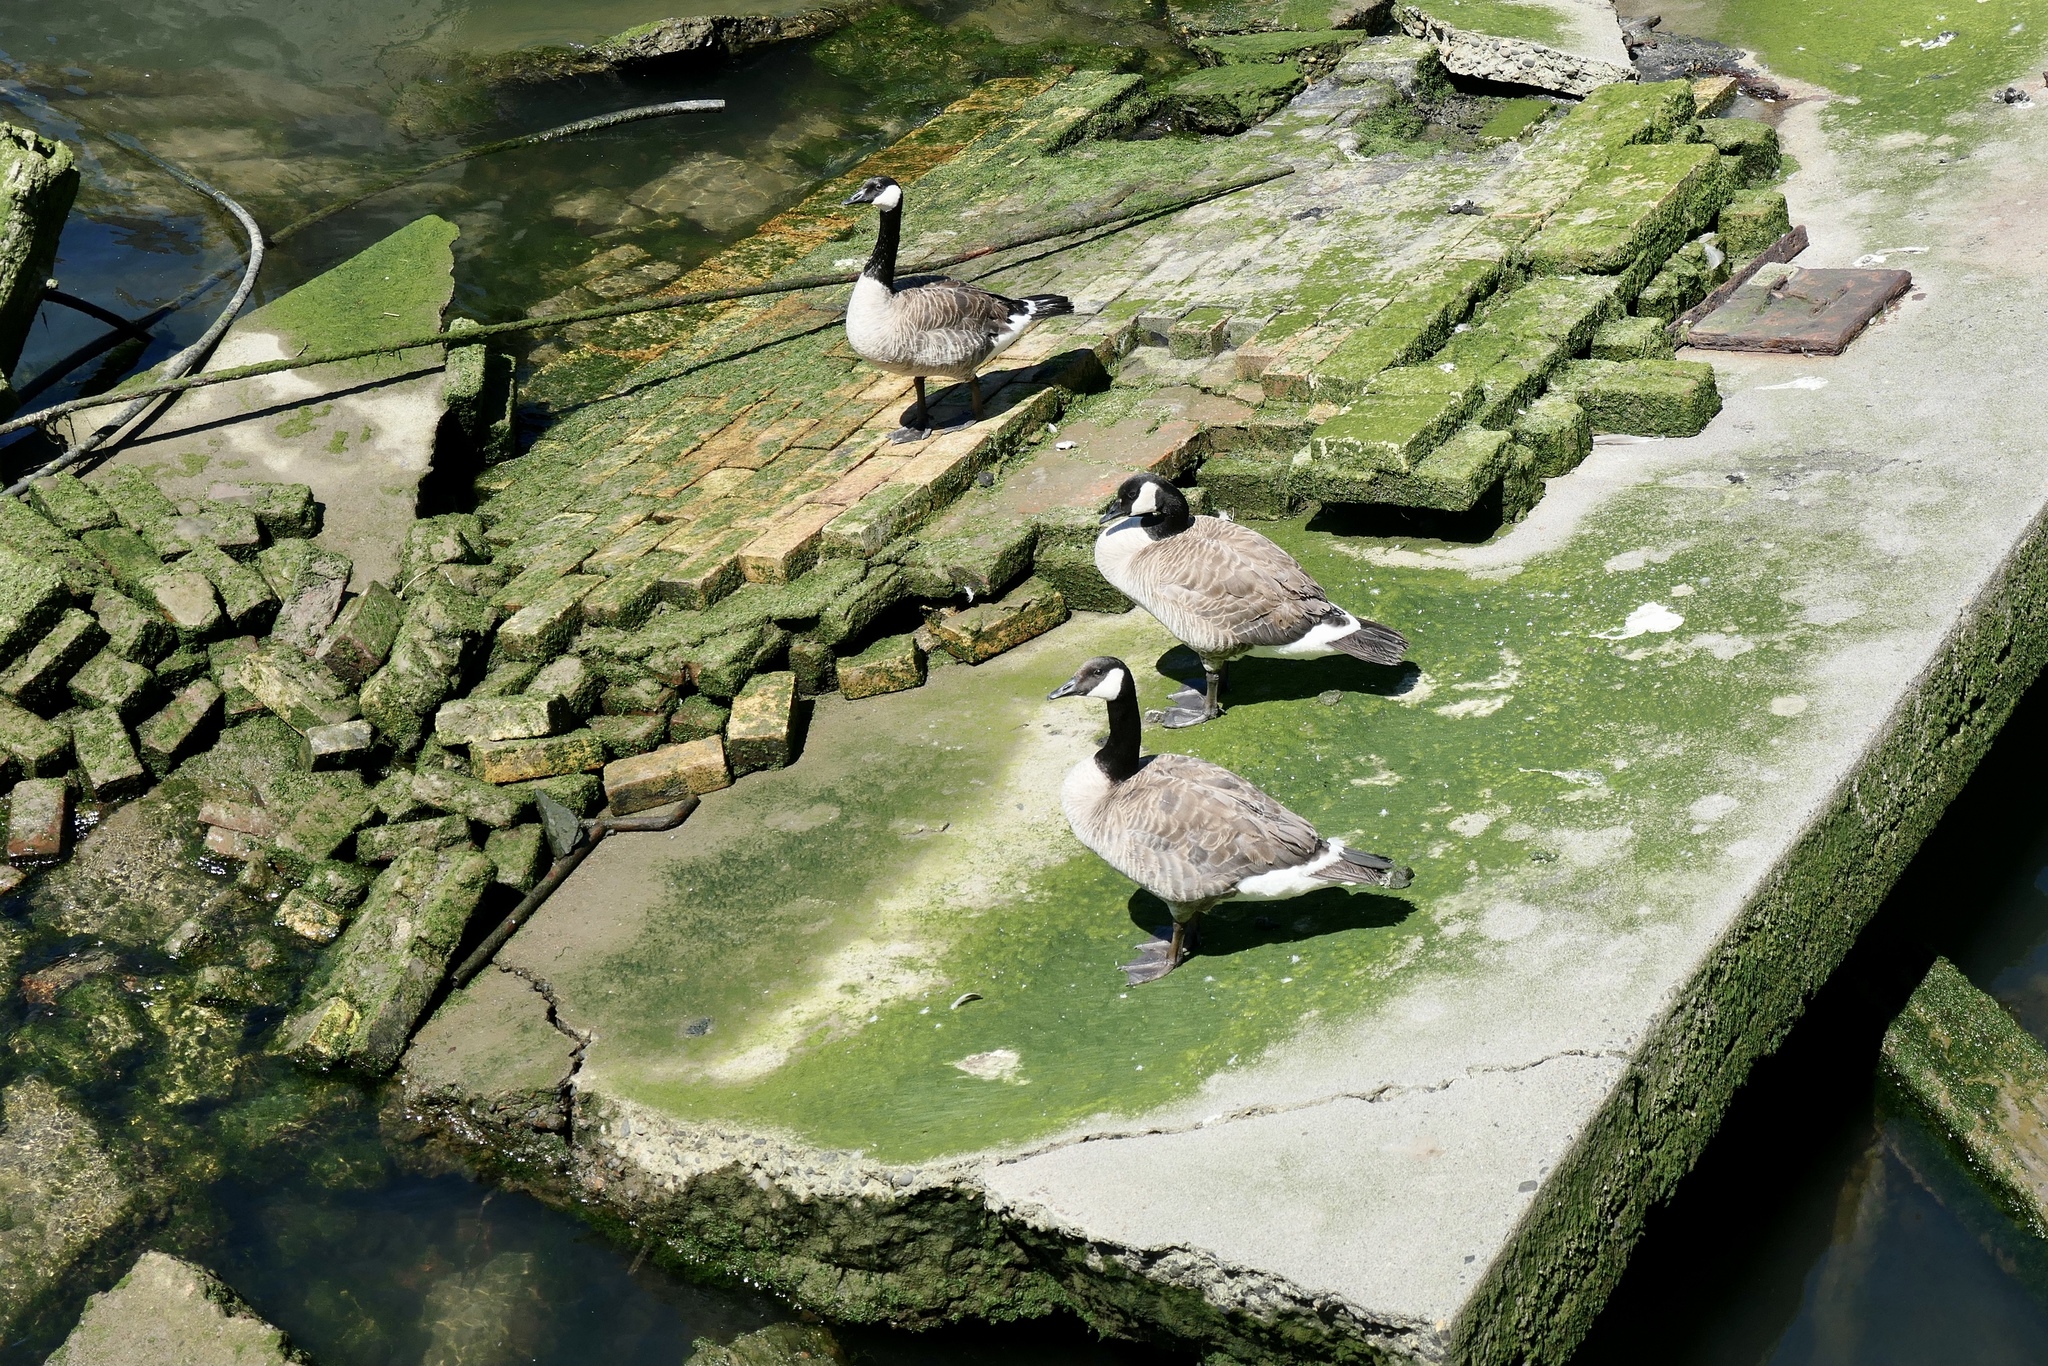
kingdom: Animalia
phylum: Chordata
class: Aves
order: Anseriformes
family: Anatidae
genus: Branta
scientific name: Branta canadensis
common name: Canada goose
